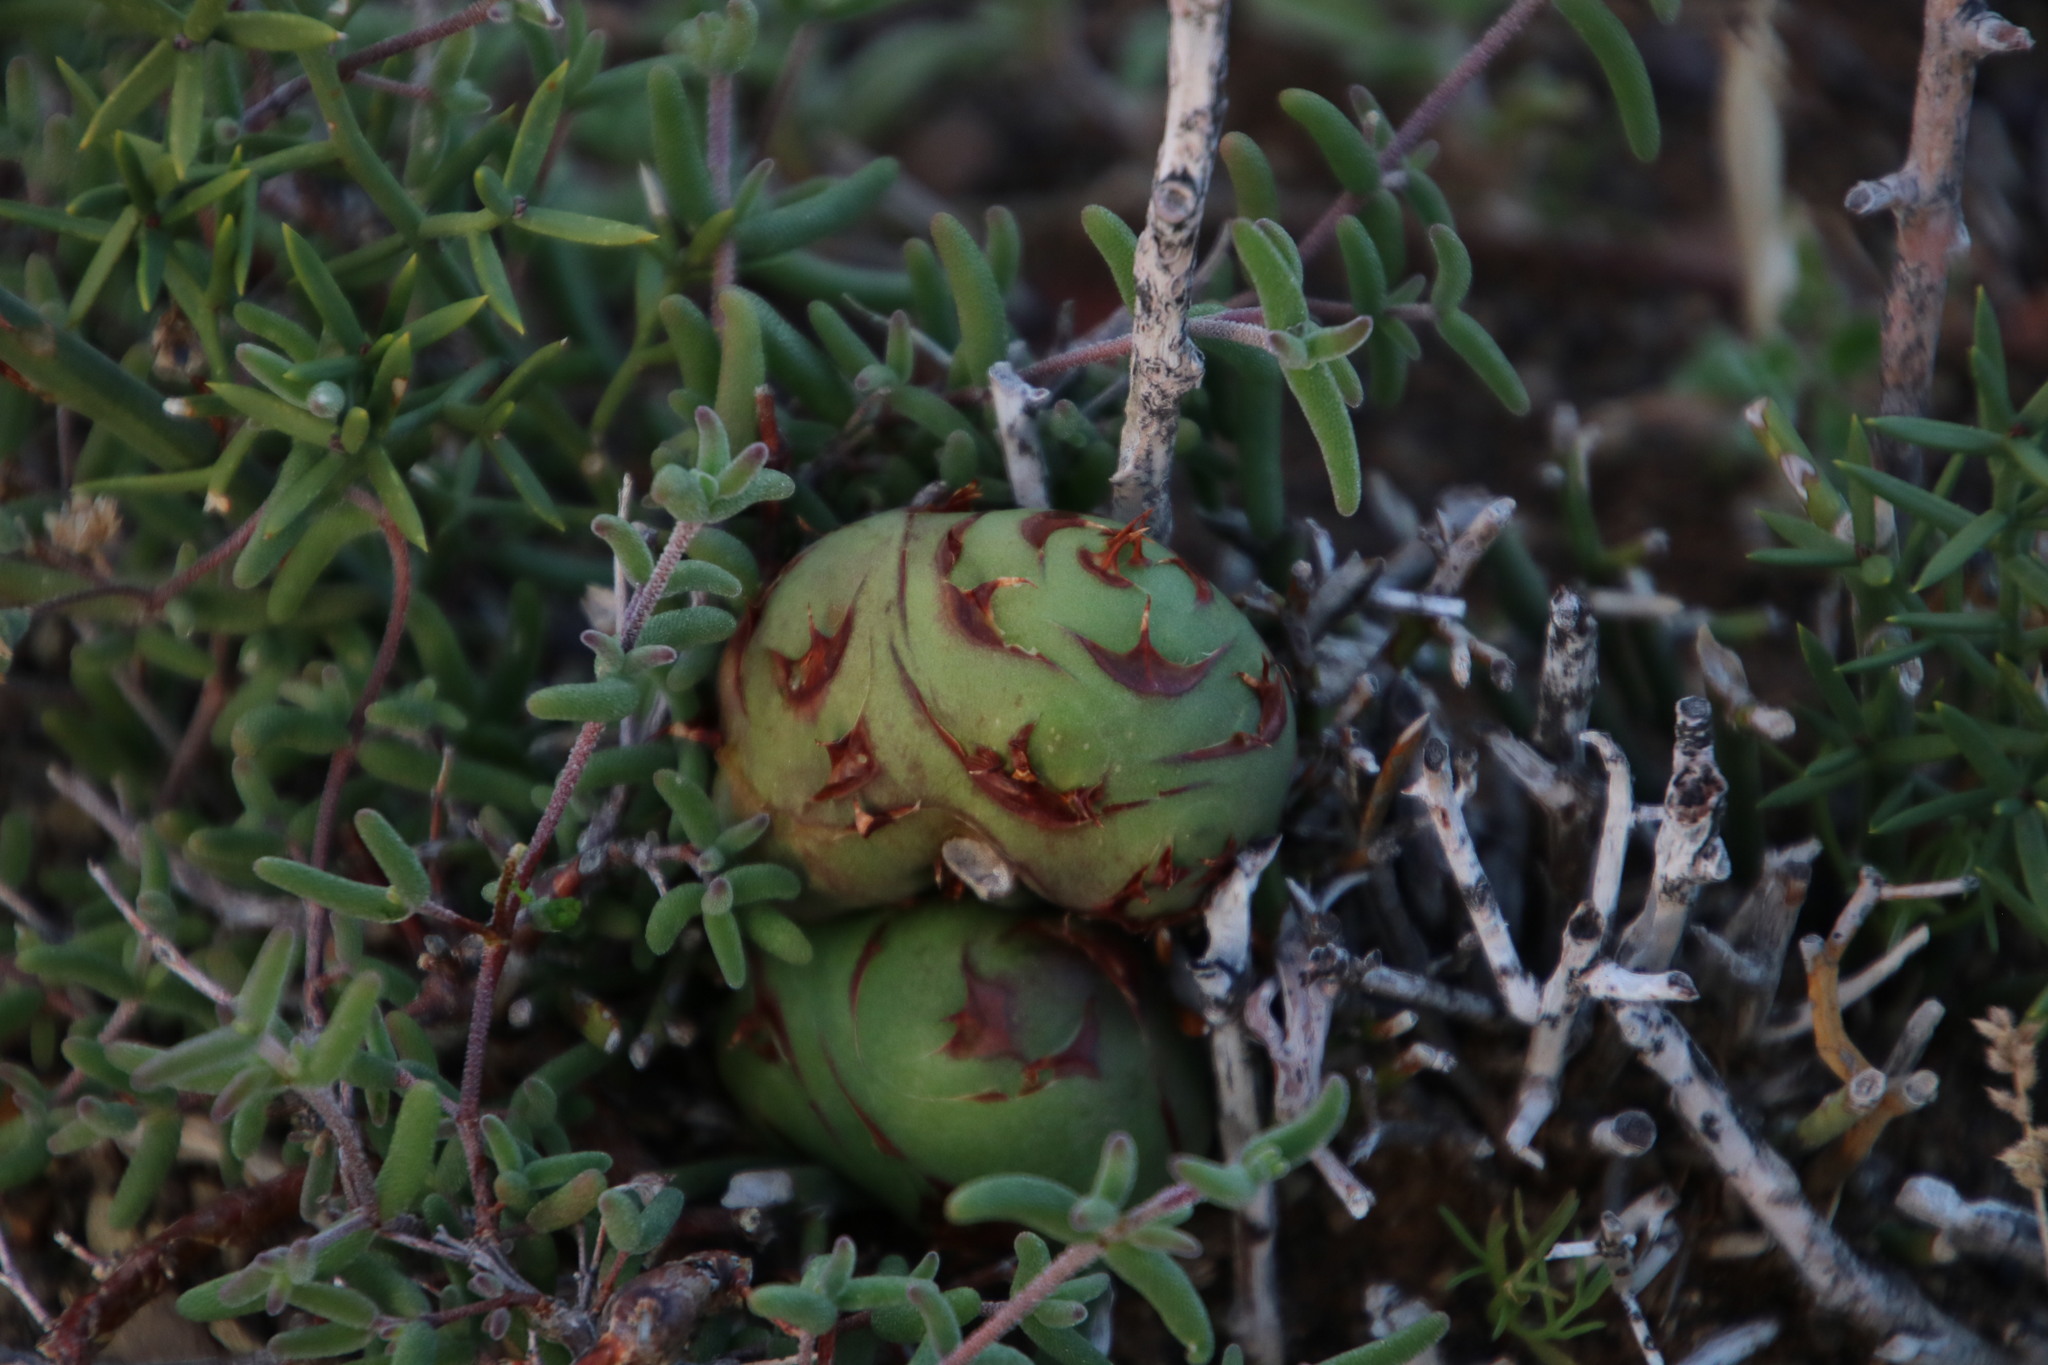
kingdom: Animalia
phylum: Arthropoda
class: Insecta
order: Hymenoptera
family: Pteromalidae
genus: Asparagobius
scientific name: Asparagobius braunsi
